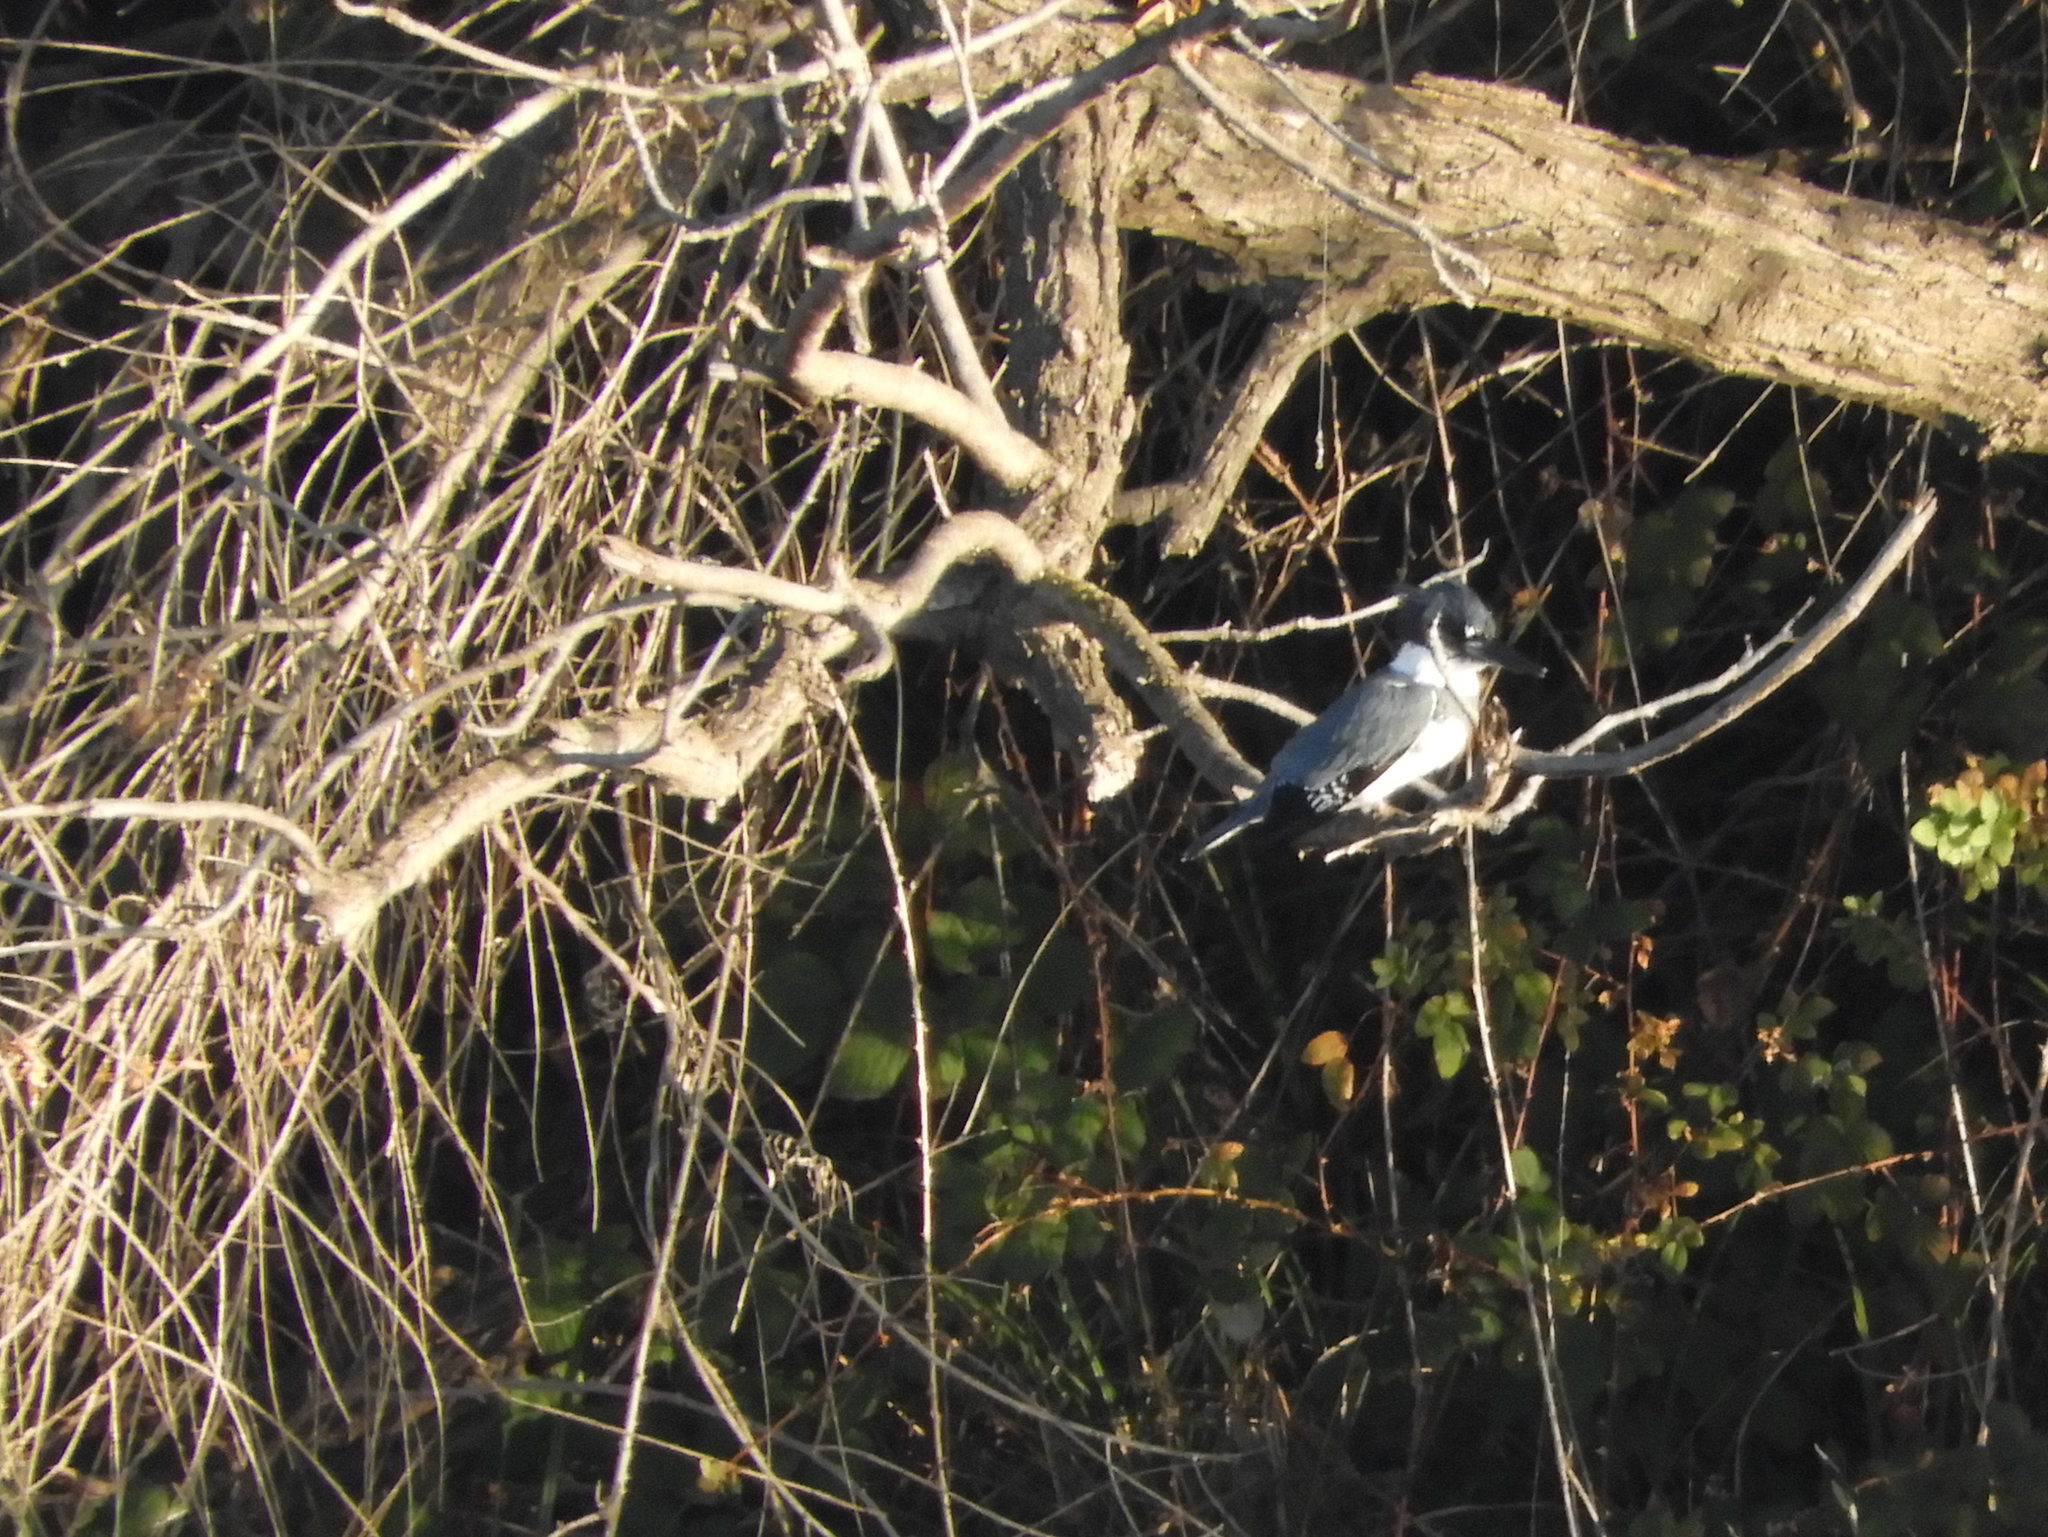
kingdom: Animalia
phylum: Chordata
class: Aves
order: Coraciiformes
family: Alcedinidae
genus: Megaceryle
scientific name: Megaceryle alcyon
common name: Belted kingfisher
